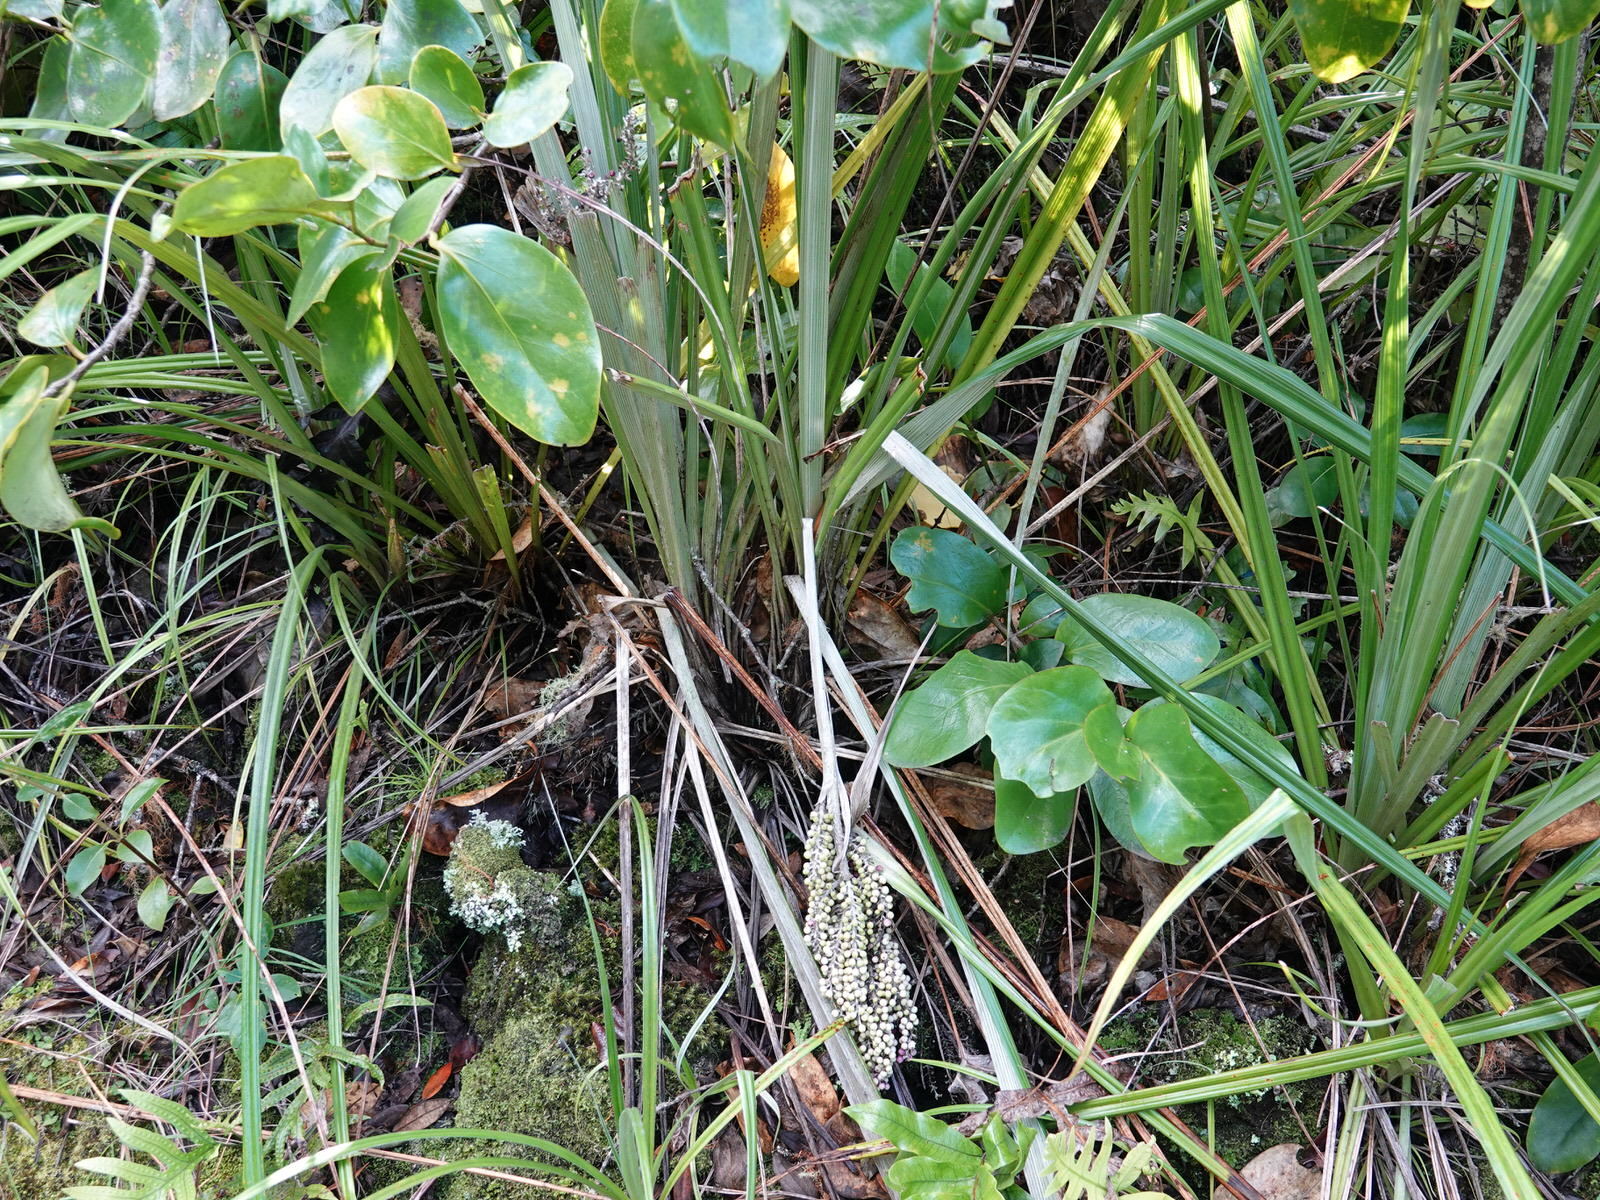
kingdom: Plantae
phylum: Tracheophyta
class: Liliopsida
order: Asparagales
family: Asteliaceae
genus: Astelia
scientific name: Astelia banksii
